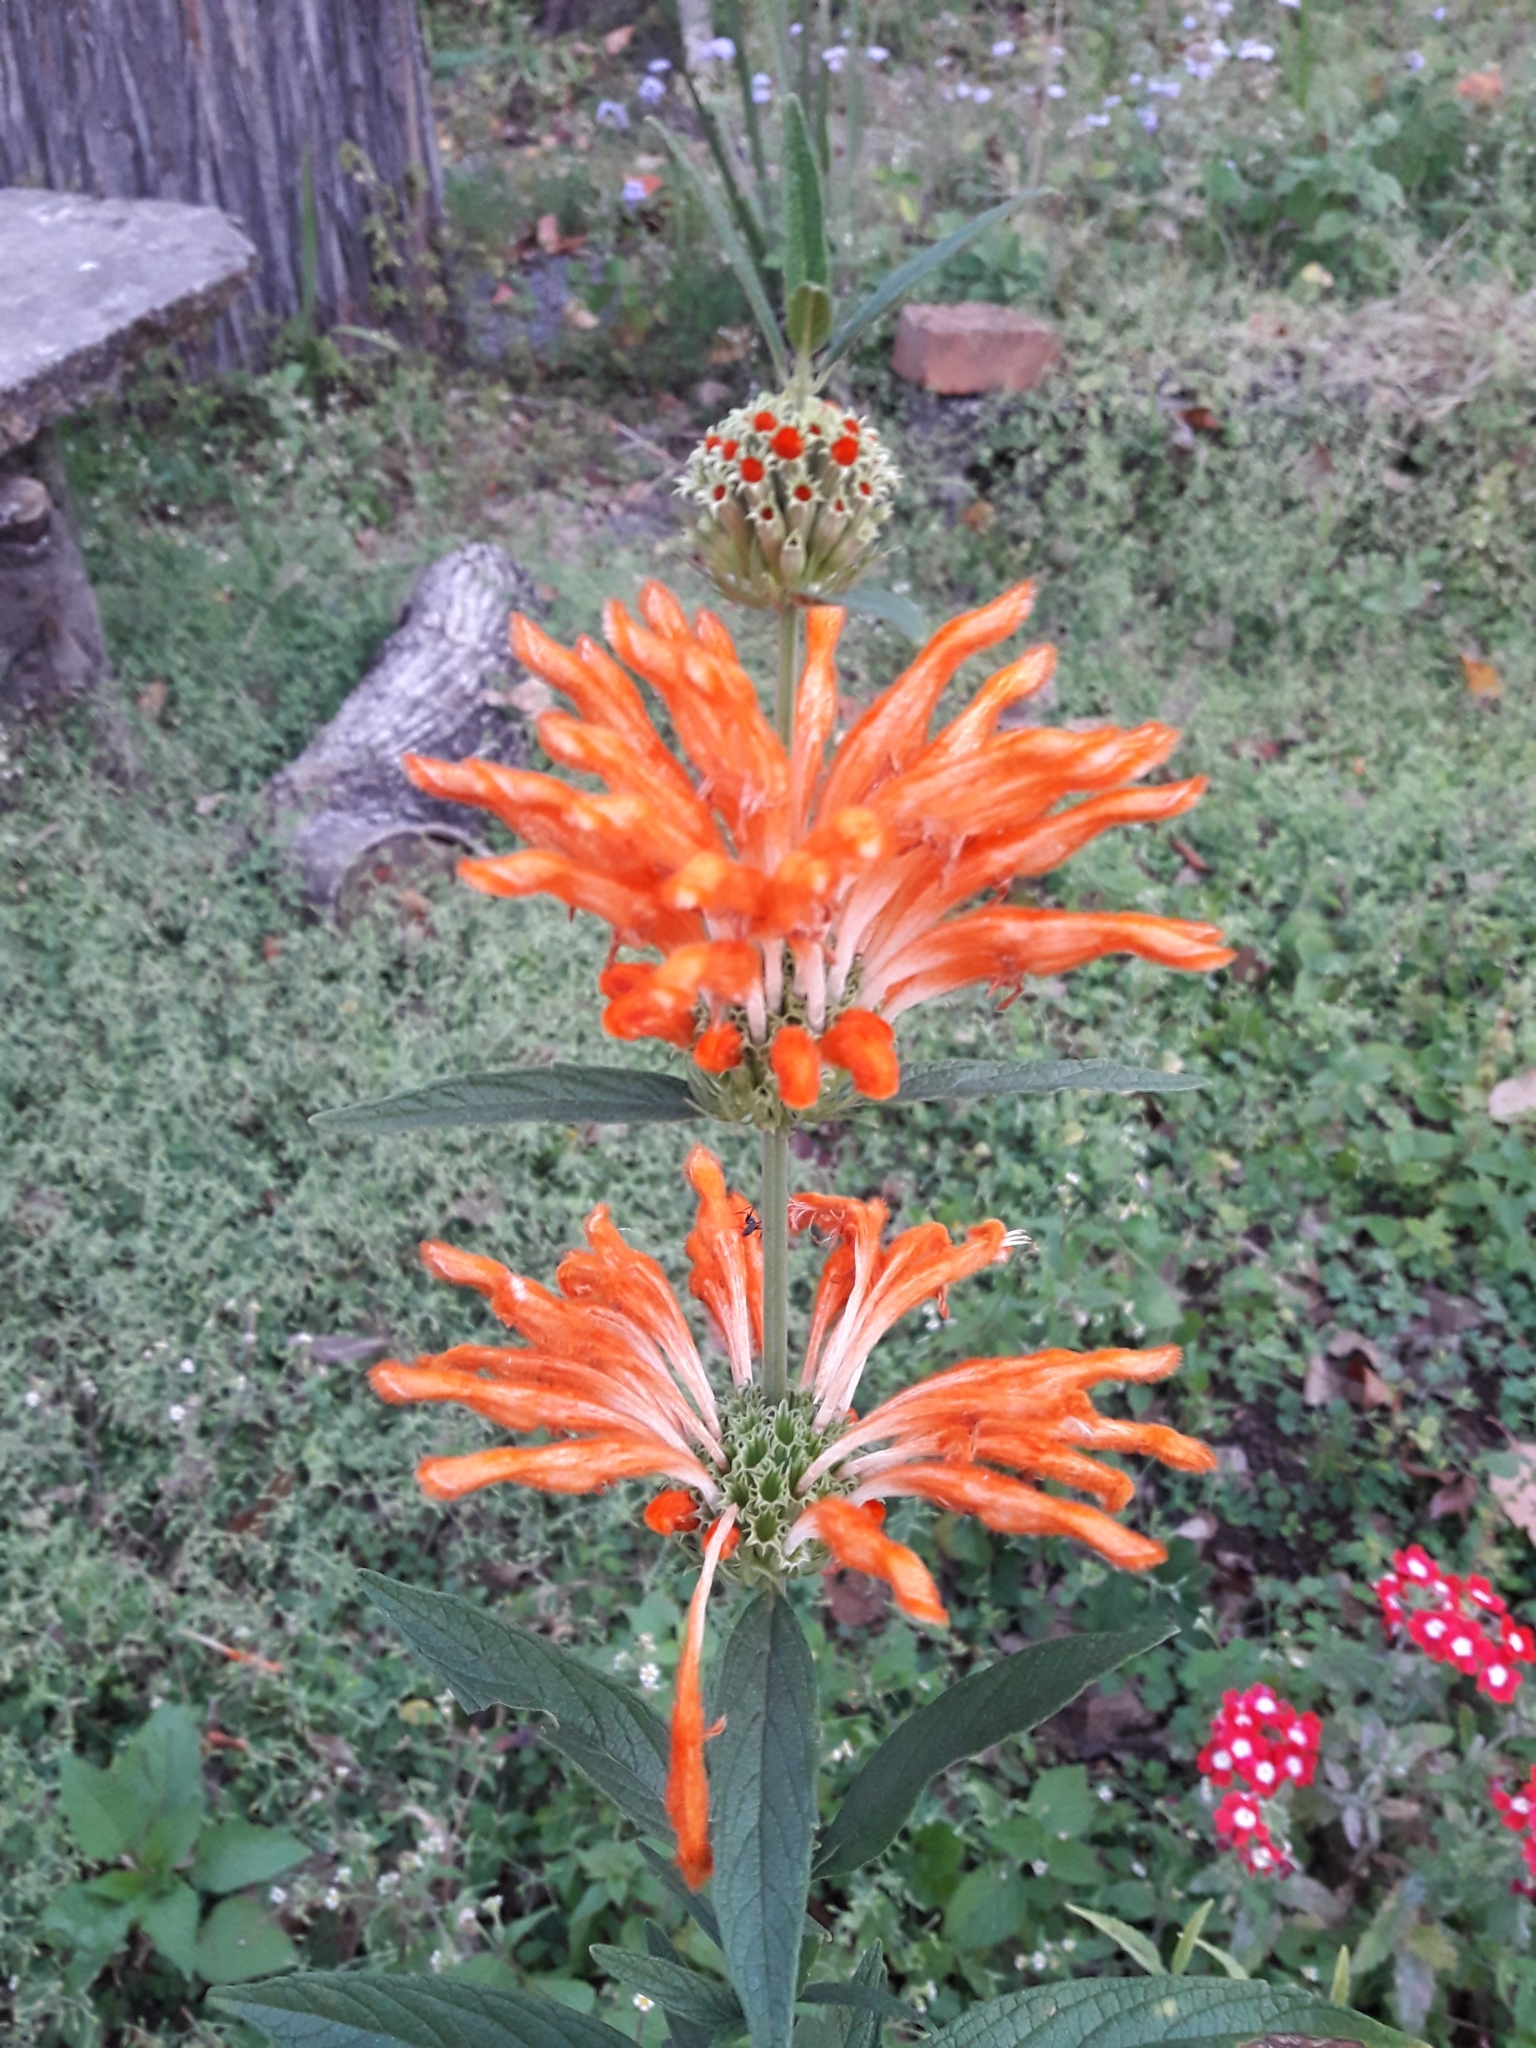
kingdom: Plantae
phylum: Tracheophyta
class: Magnoliopsida
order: Lamiales
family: Lamiaceae
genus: Leonotis
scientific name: Leonotis leonurus
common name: Lion's ear
